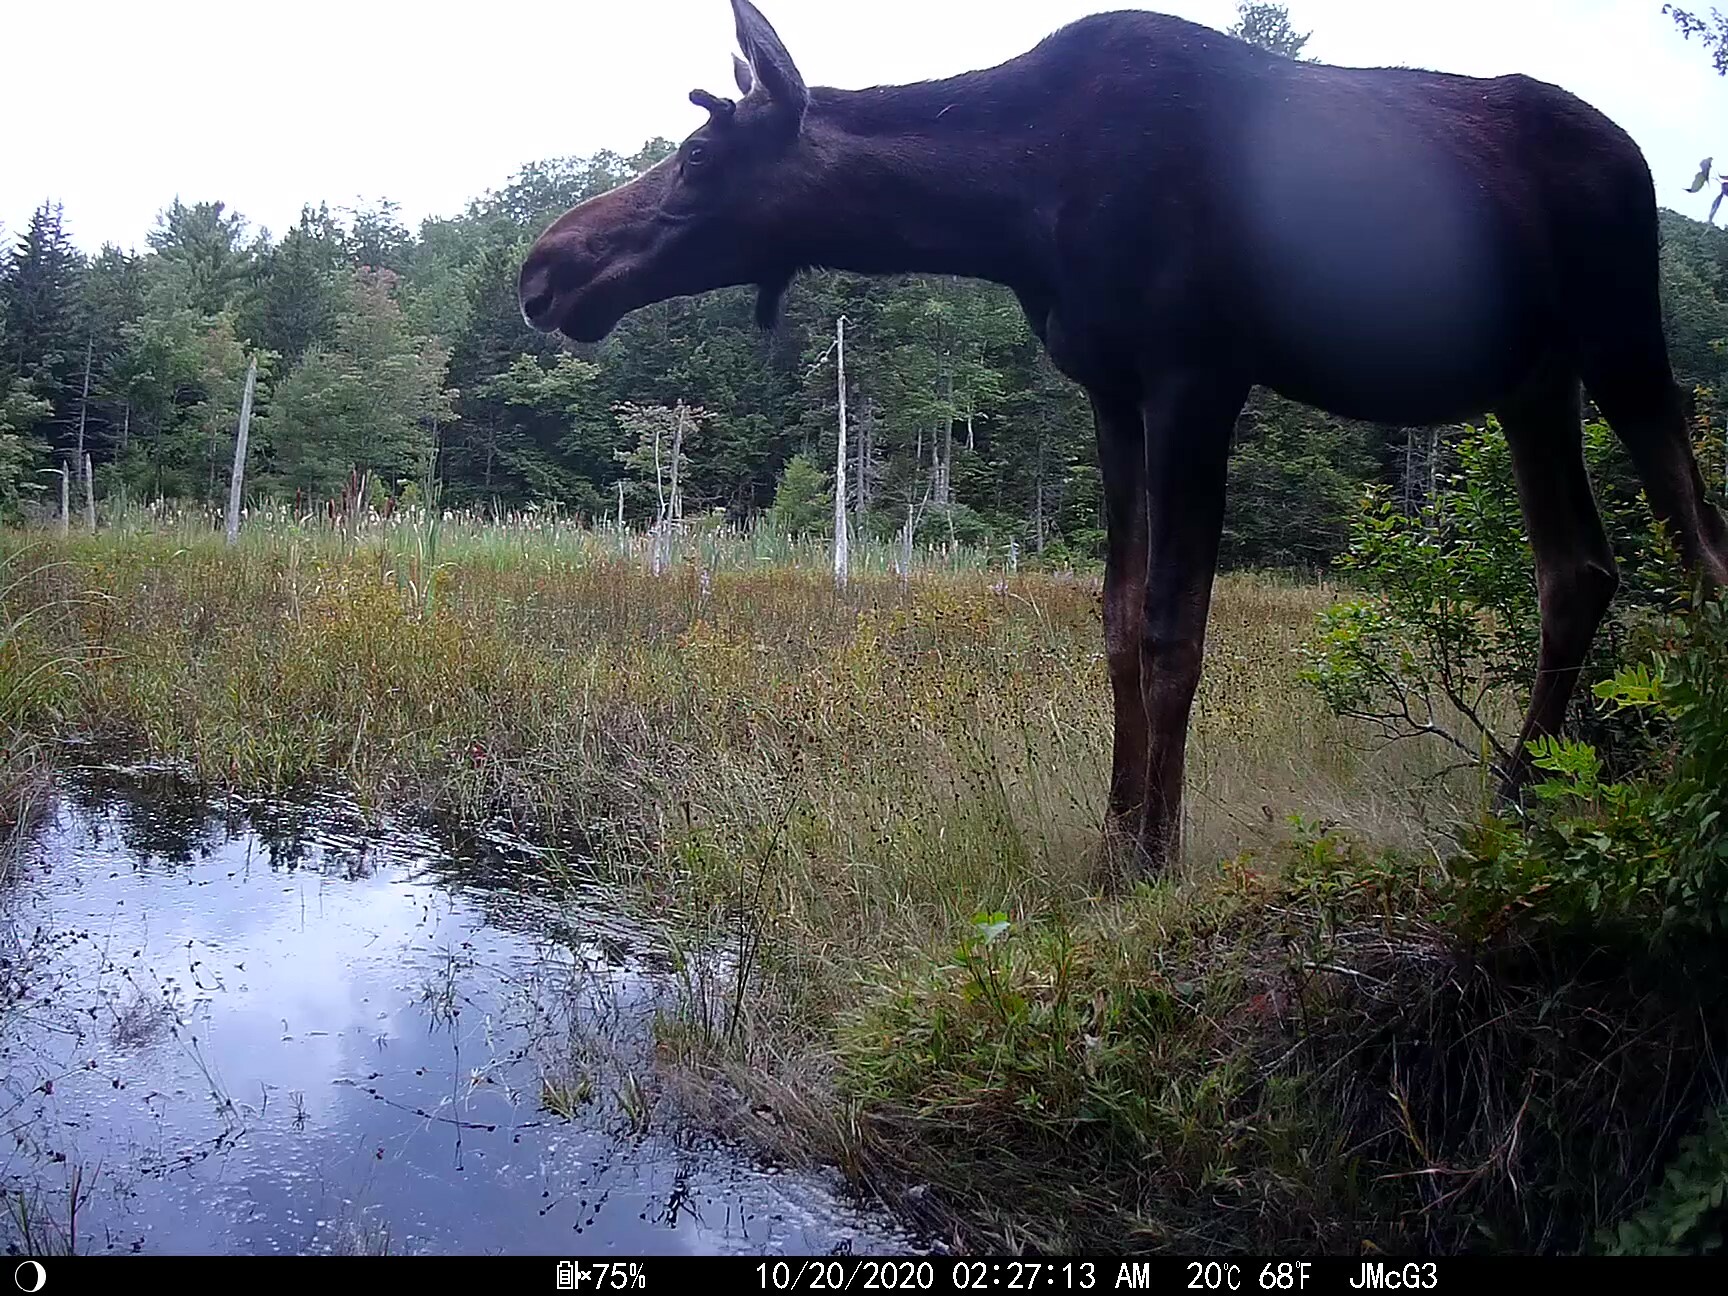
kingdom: Animalia
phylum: Chordata
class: Mammalia
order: Artiodactyla
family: Cervidae
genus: Alces
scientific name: Alces alces
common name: Moose
